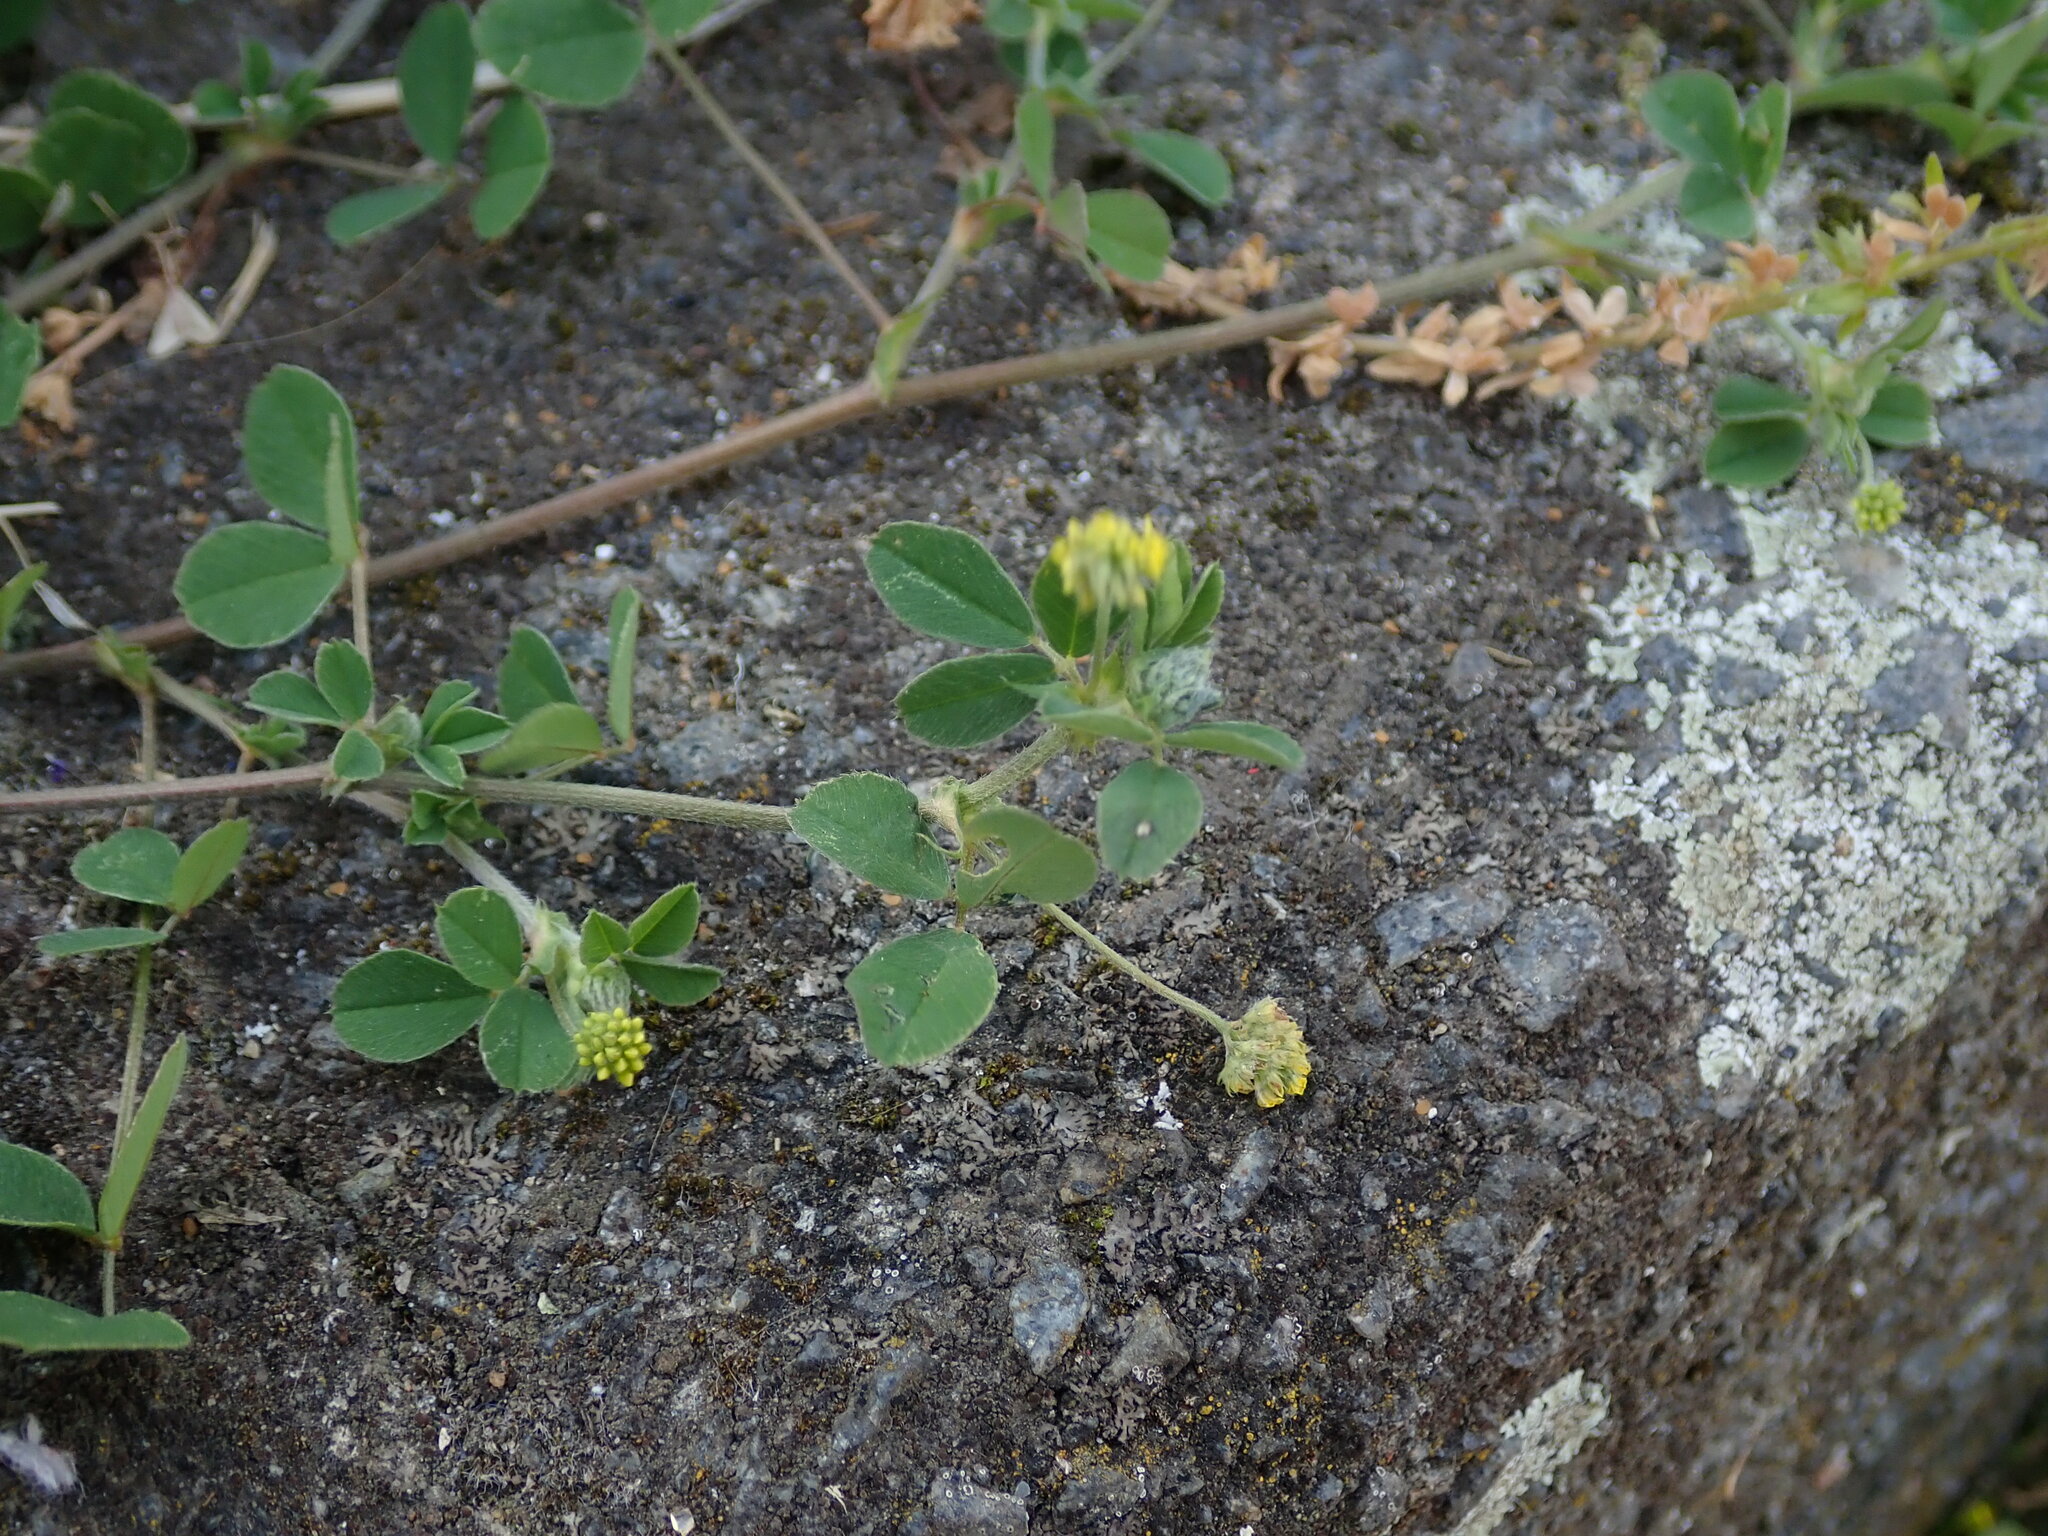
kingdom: Plantae
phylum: Tracheophyta
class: Magnoliopsida
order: Fabales
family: Fabaceae
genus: Medicago
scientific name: Medicago lupulina
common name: Black medick
